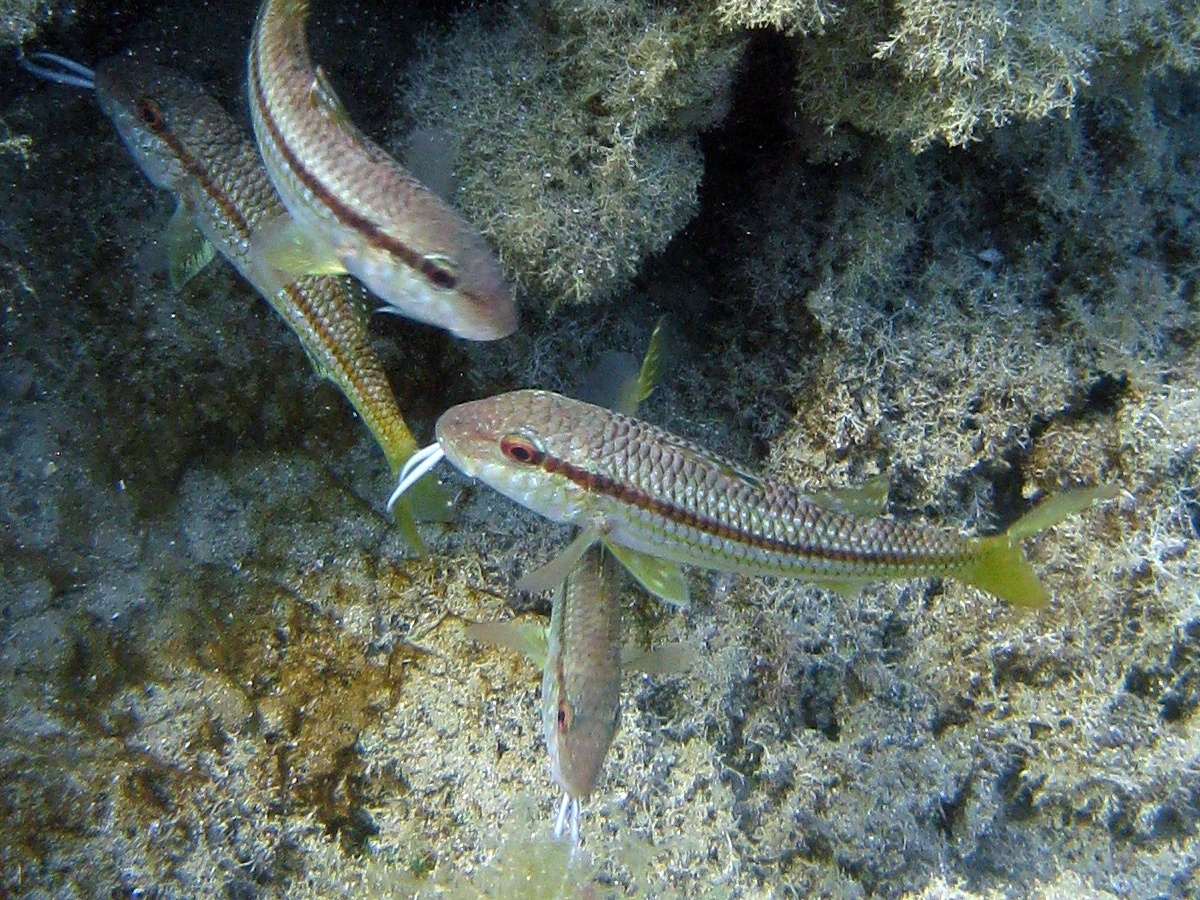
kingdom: Animalia
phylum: Chordata
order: Perciformes
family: Mullidae
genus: Mullus
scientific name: Mullus surmuletus
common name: Red mullet
